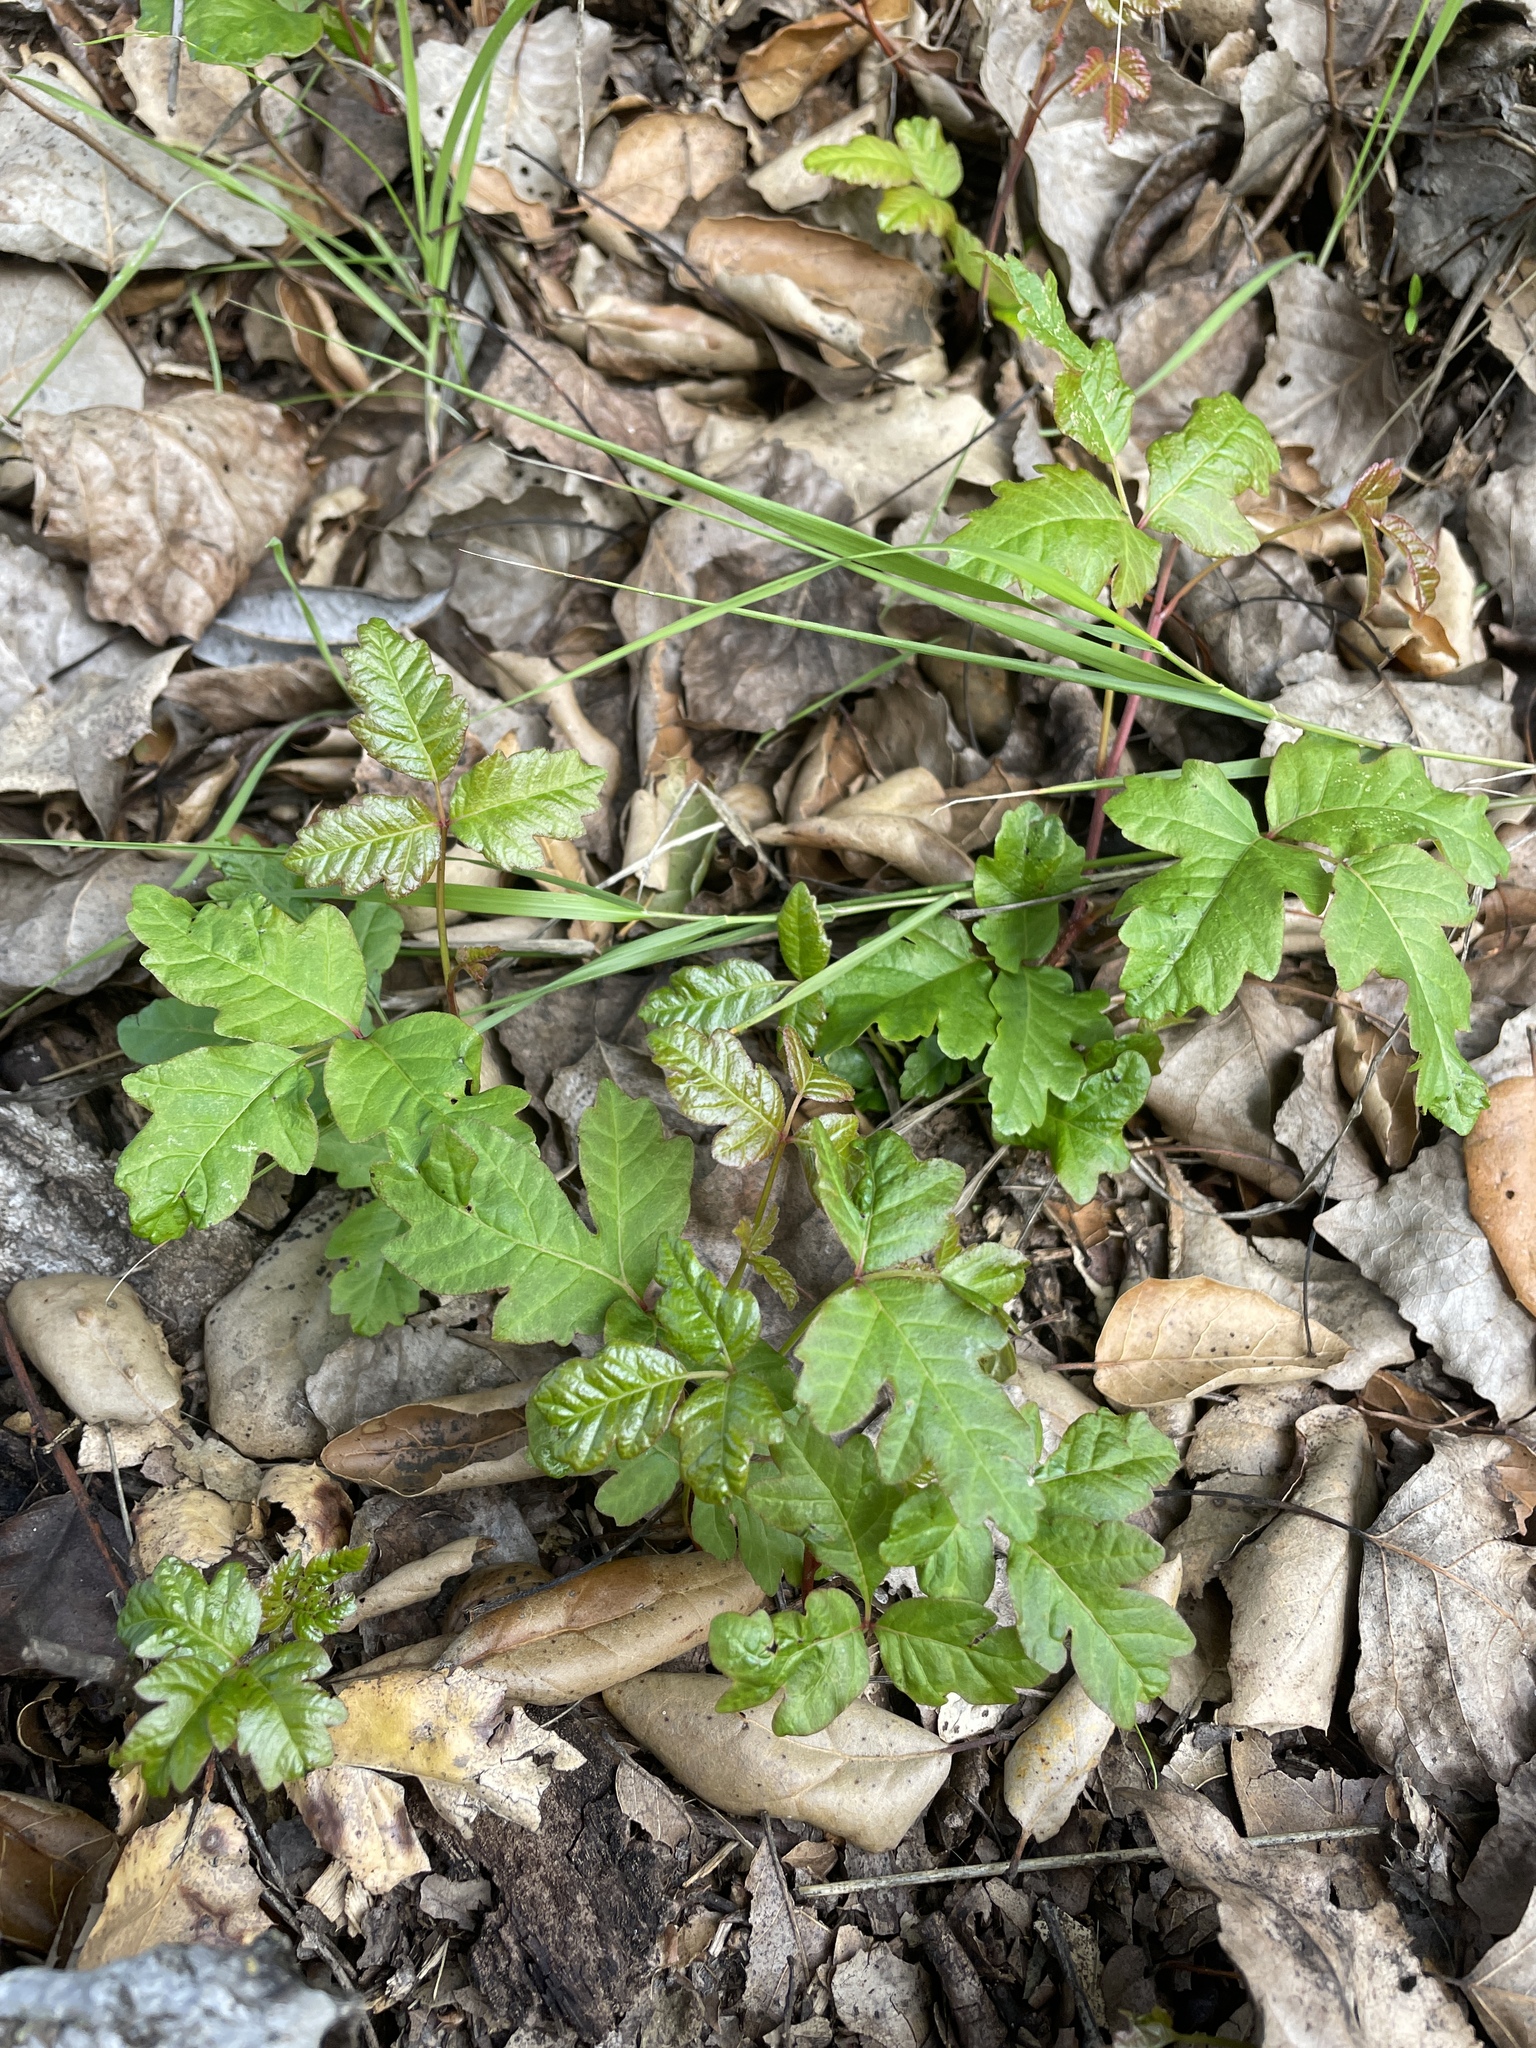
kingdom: Plantae
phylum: Tracheophyta
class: Magnoliopsida
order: Sapindales
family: Anacardiaceae
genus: Toxicodendron
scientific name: Toxicodendron diversilobum
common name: Pacific poison-oak
